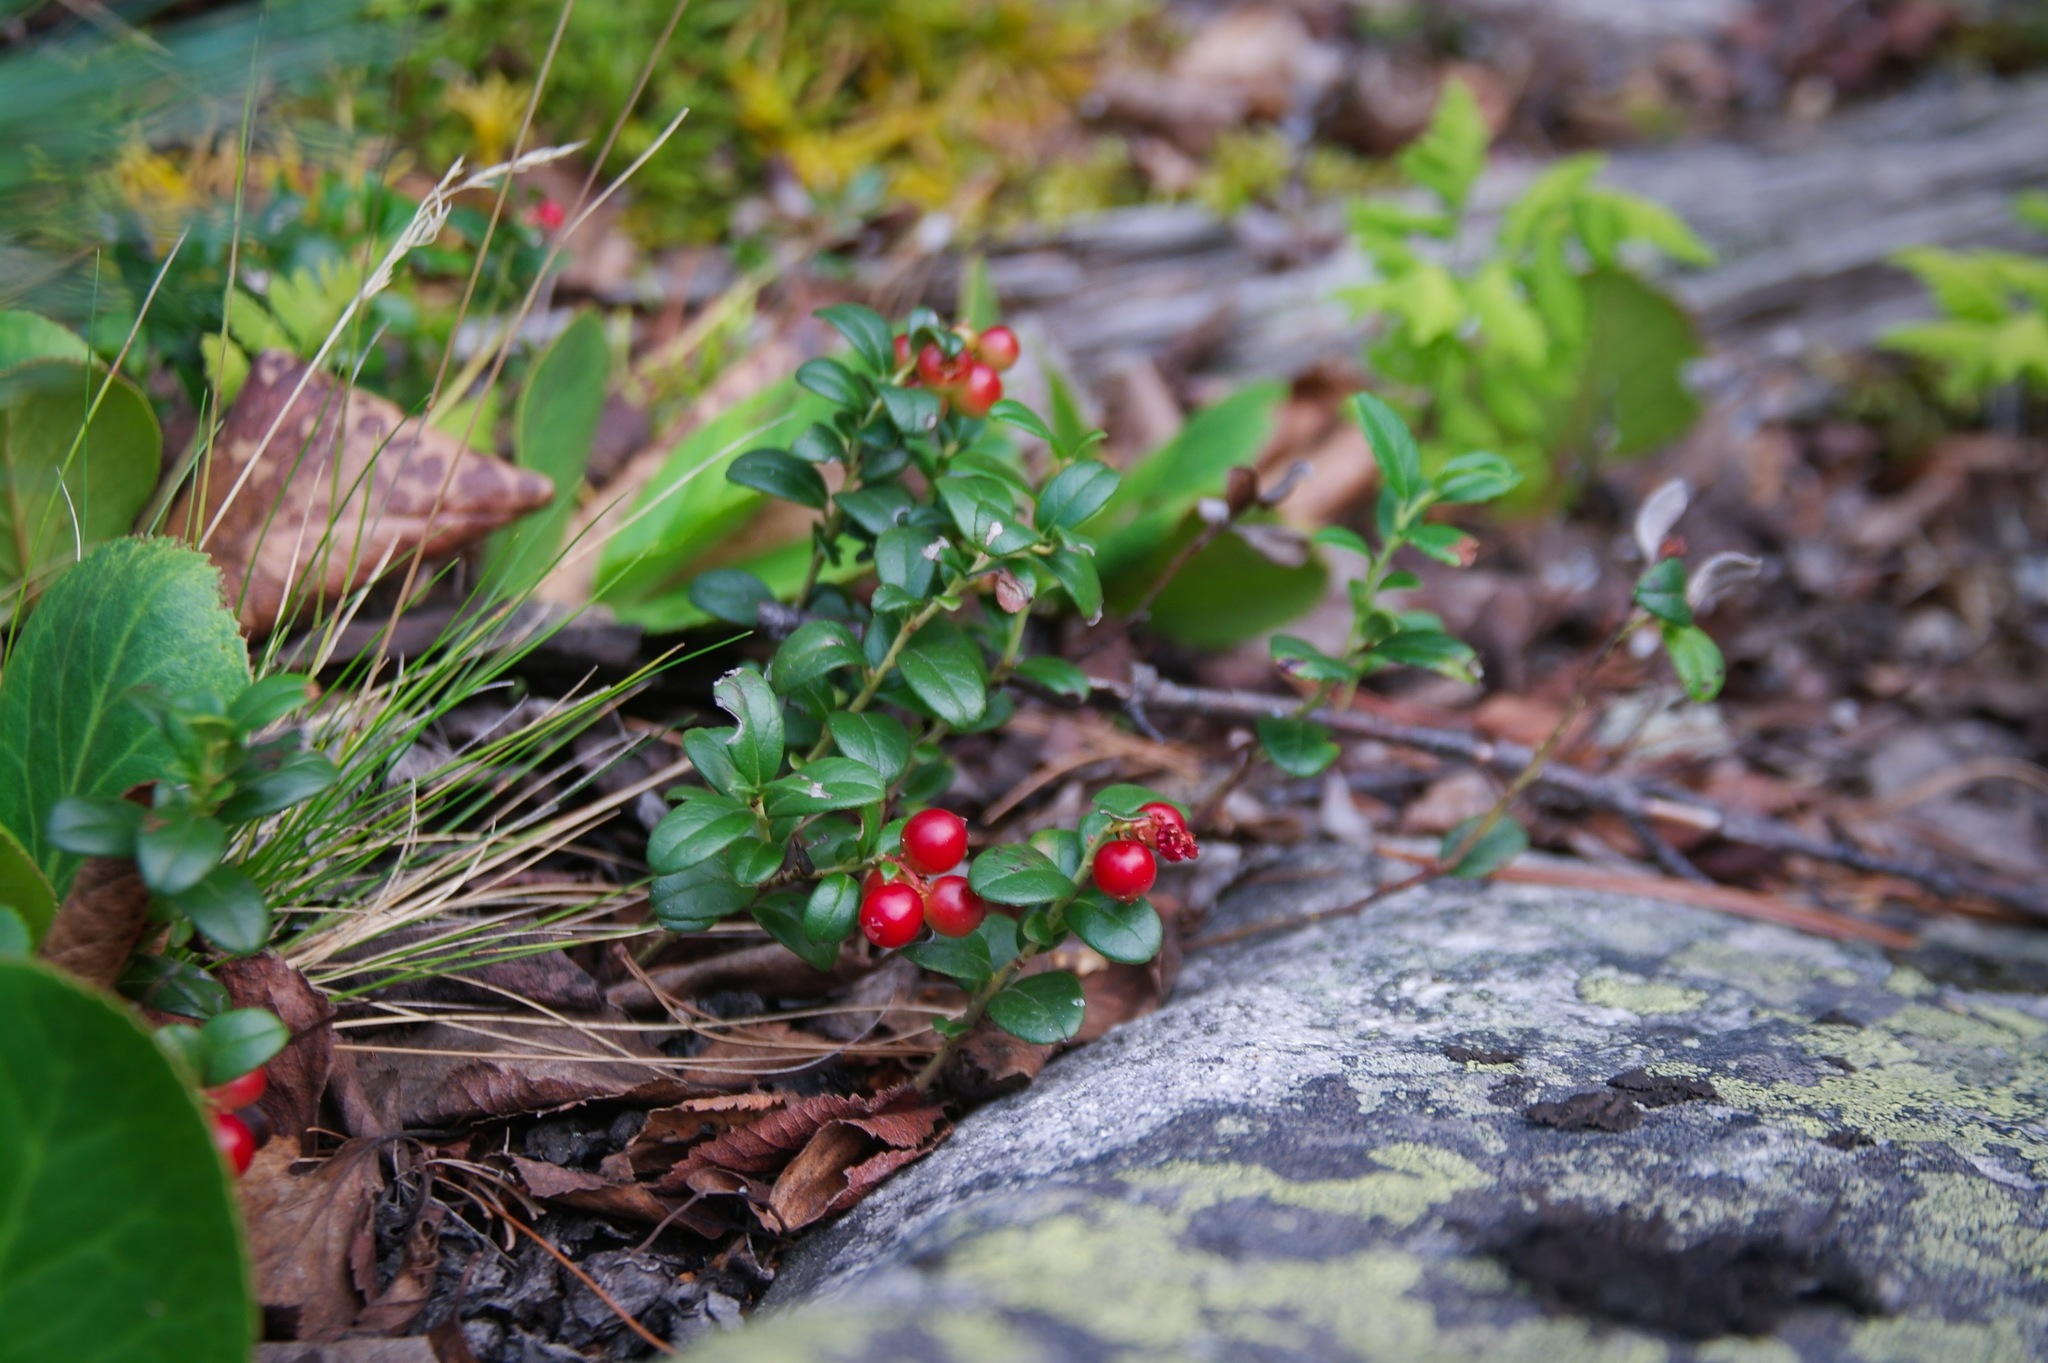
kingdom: Plantae
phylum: Tracheophyta
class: Magnoliopsida
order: Ericales
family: Ericaceae
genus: Vaccinium
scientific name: Vaccinium vitis-idaea
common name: Cowberry
